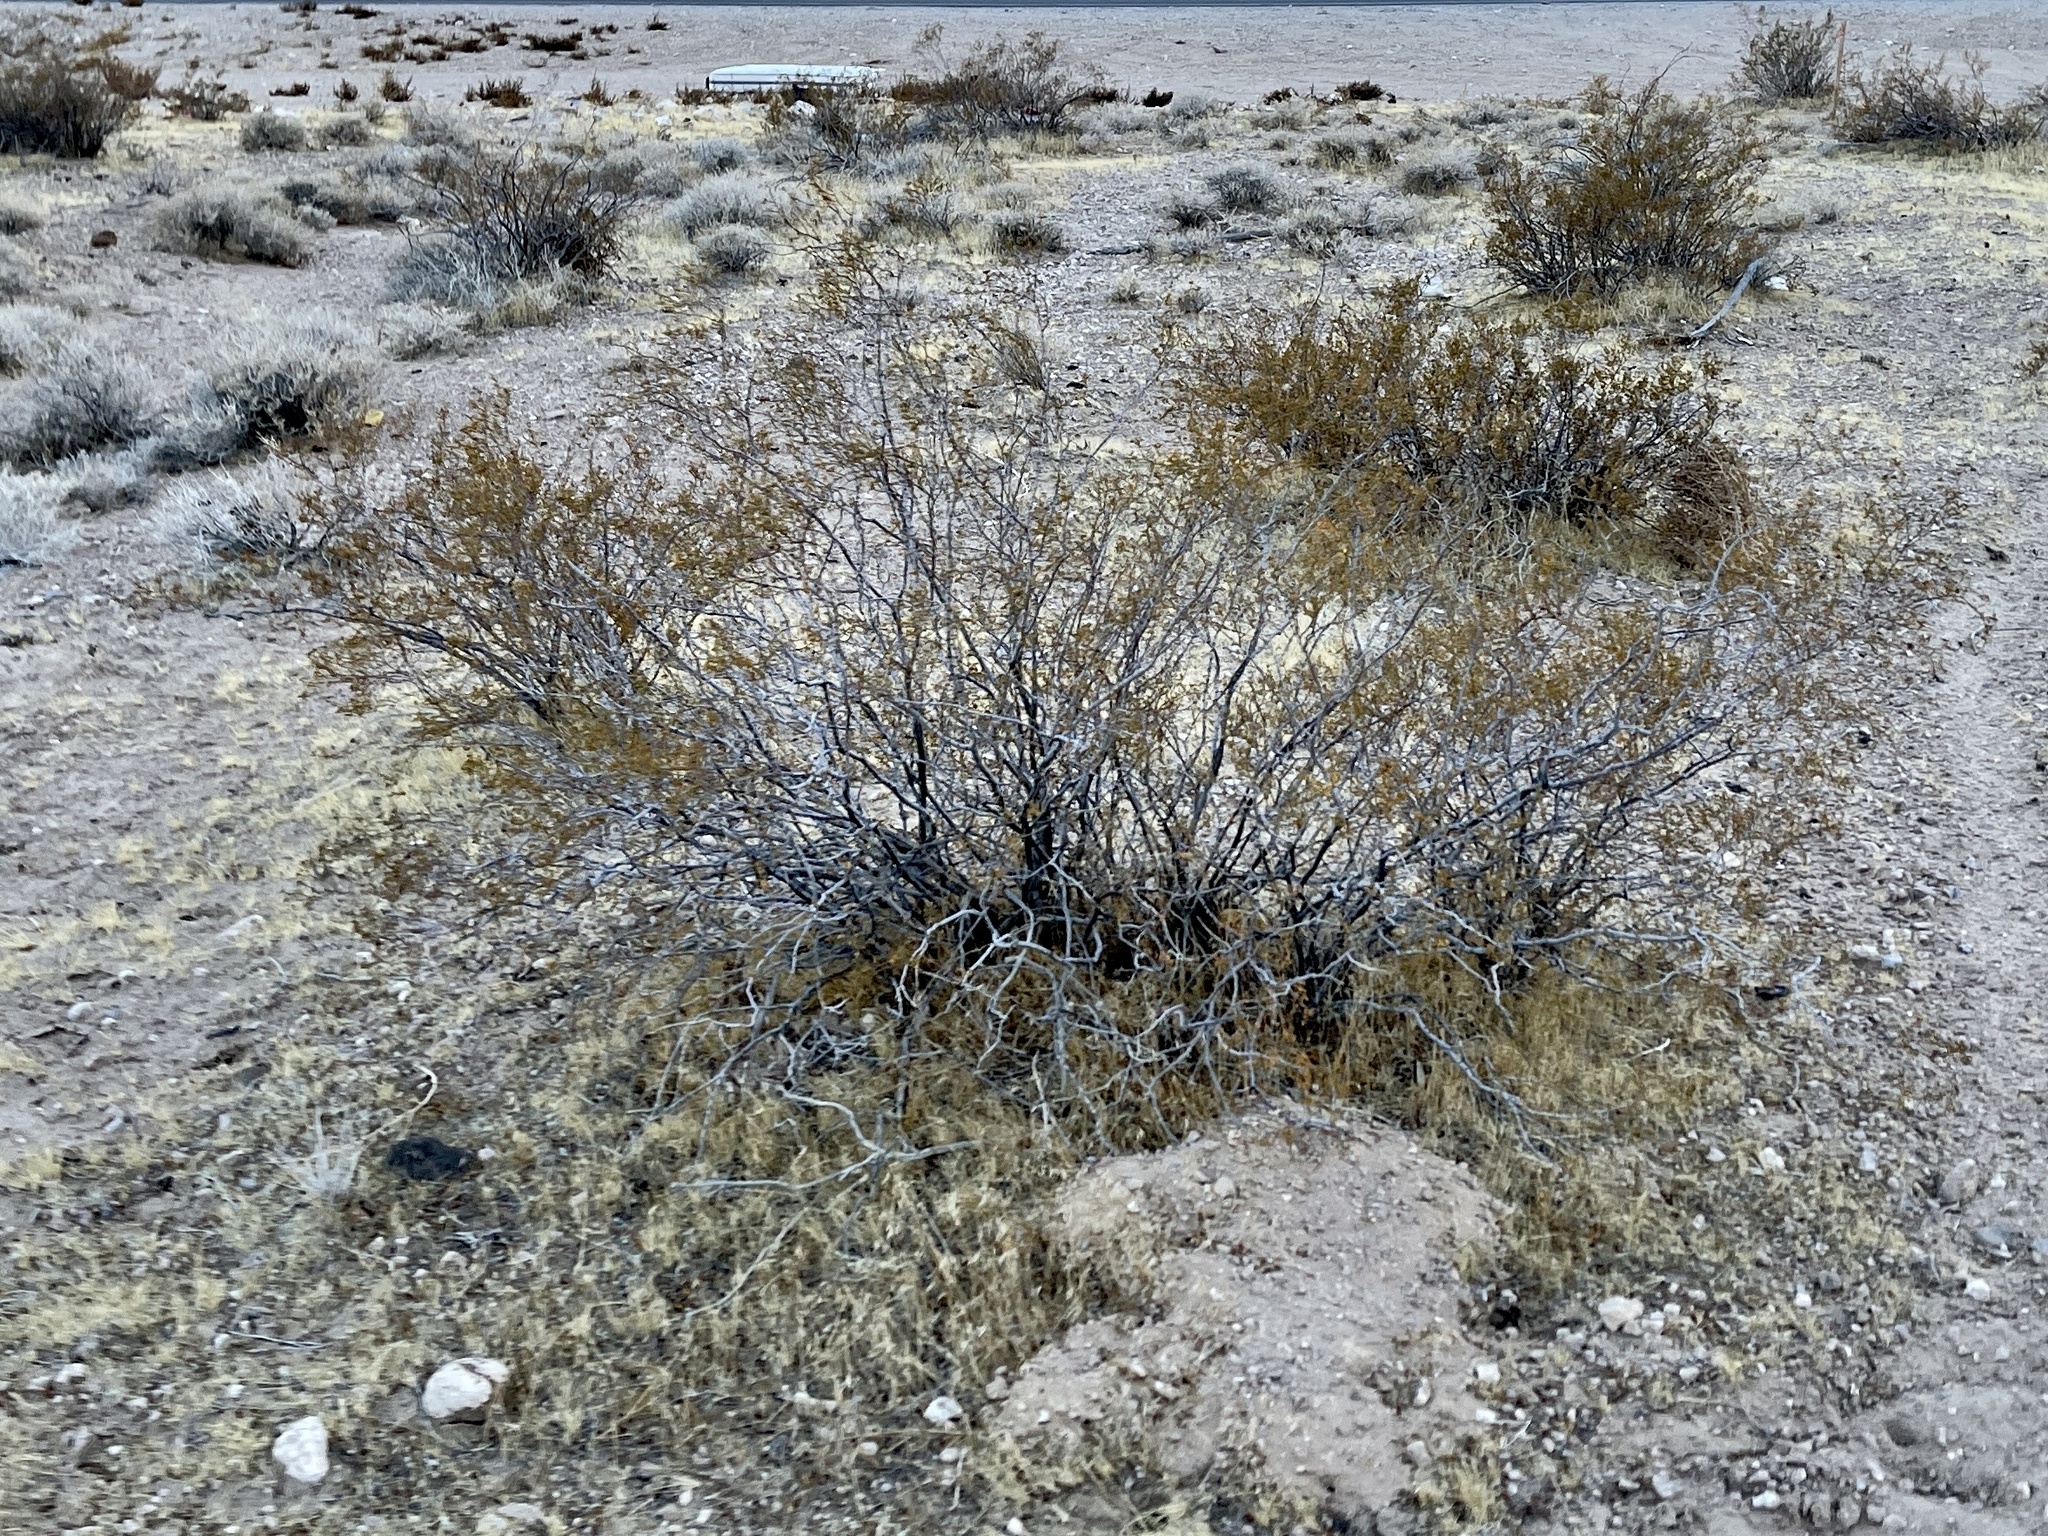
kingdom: Plantae
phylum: Tracheophyta
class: Magnoliopsida
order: Zygophyllales
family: Zygophyllaceae
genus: Larrea
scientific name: Larrea tridentata
